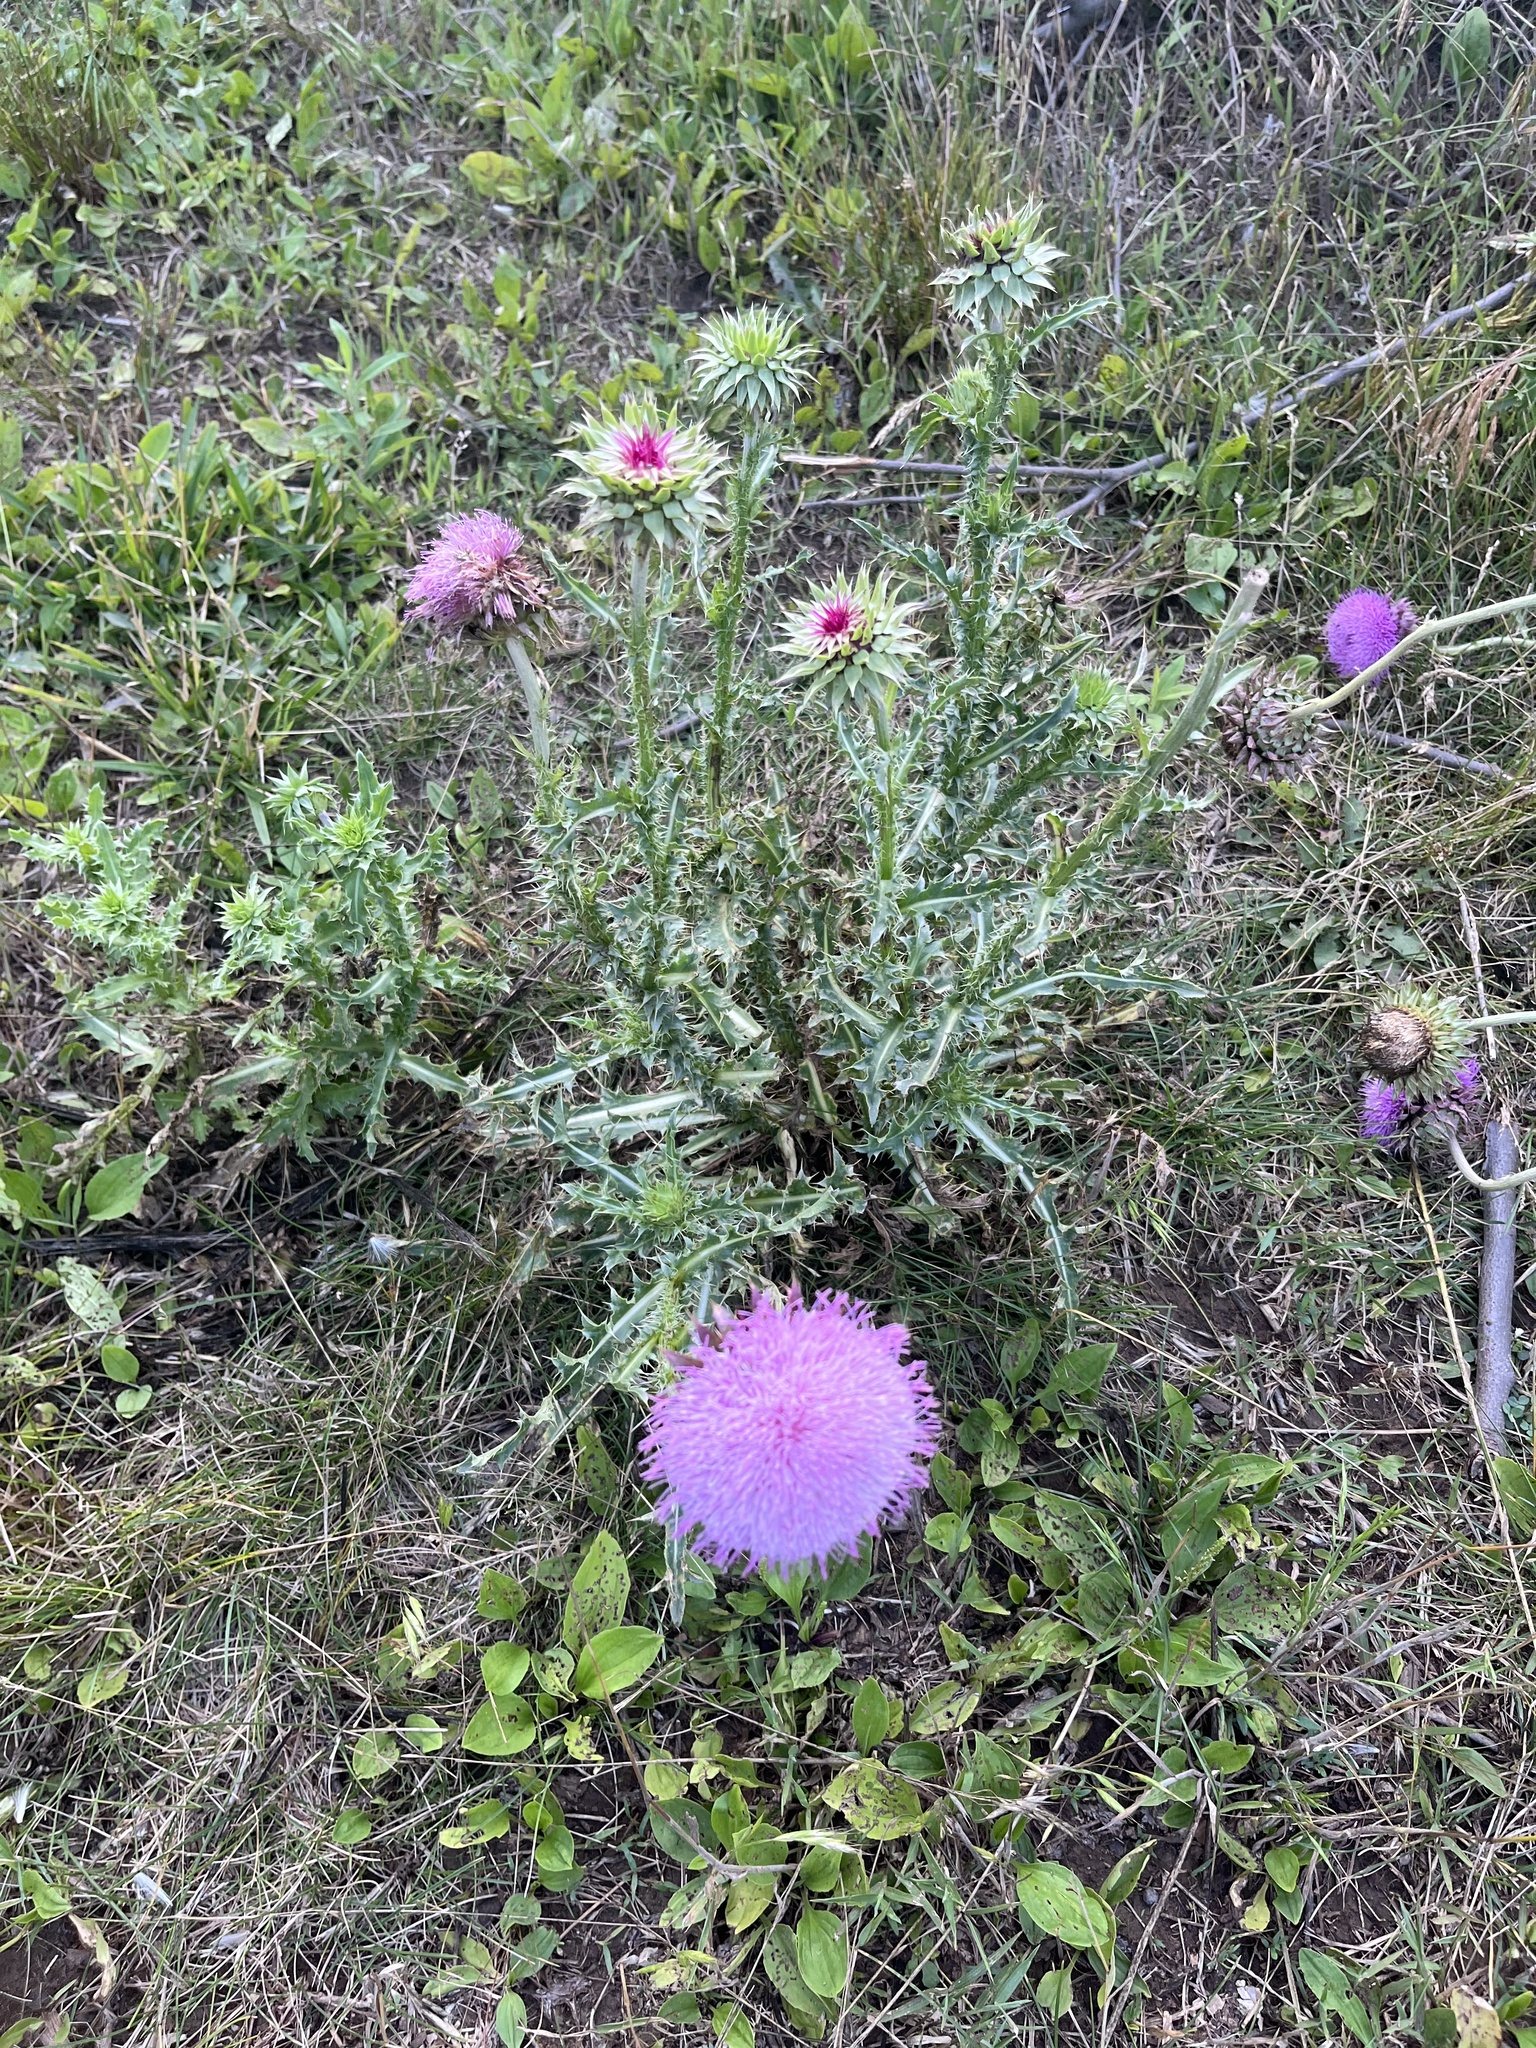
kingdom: Plantae
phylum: Tracheophyta
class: Magnoliopsida
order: Asterales
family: Asteraceae
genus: Carduus
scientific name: Carduus nutans
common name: Musk thistle
